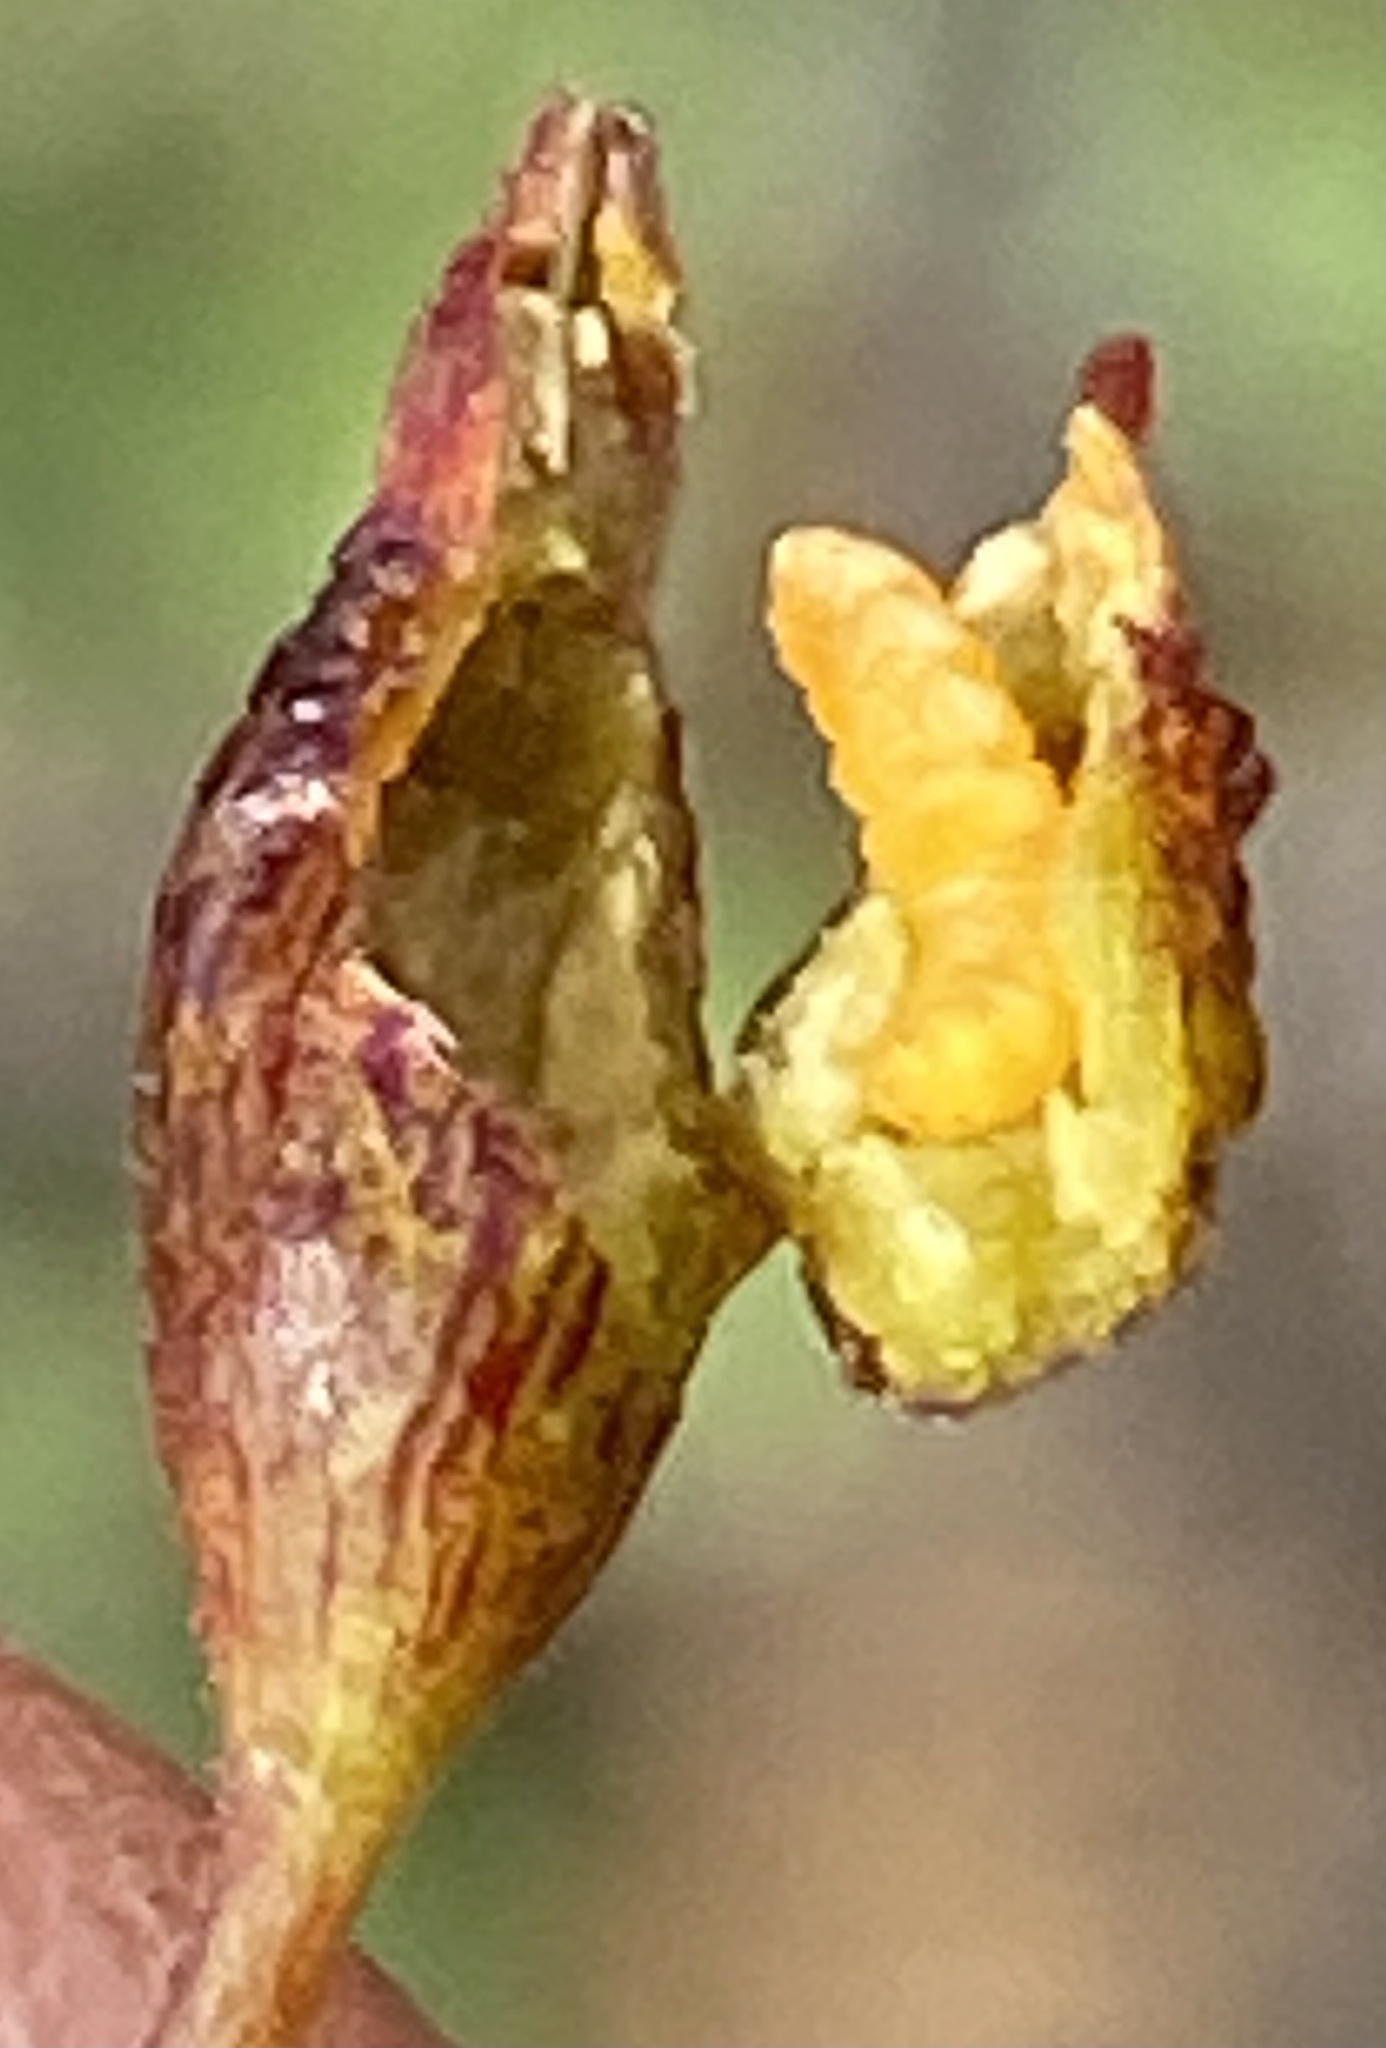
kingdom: Animalia
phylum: Arthropoda
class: Insecta
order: Diptera
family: Cecidomyiidae
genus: Schizomyia
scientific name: Schizomyia
